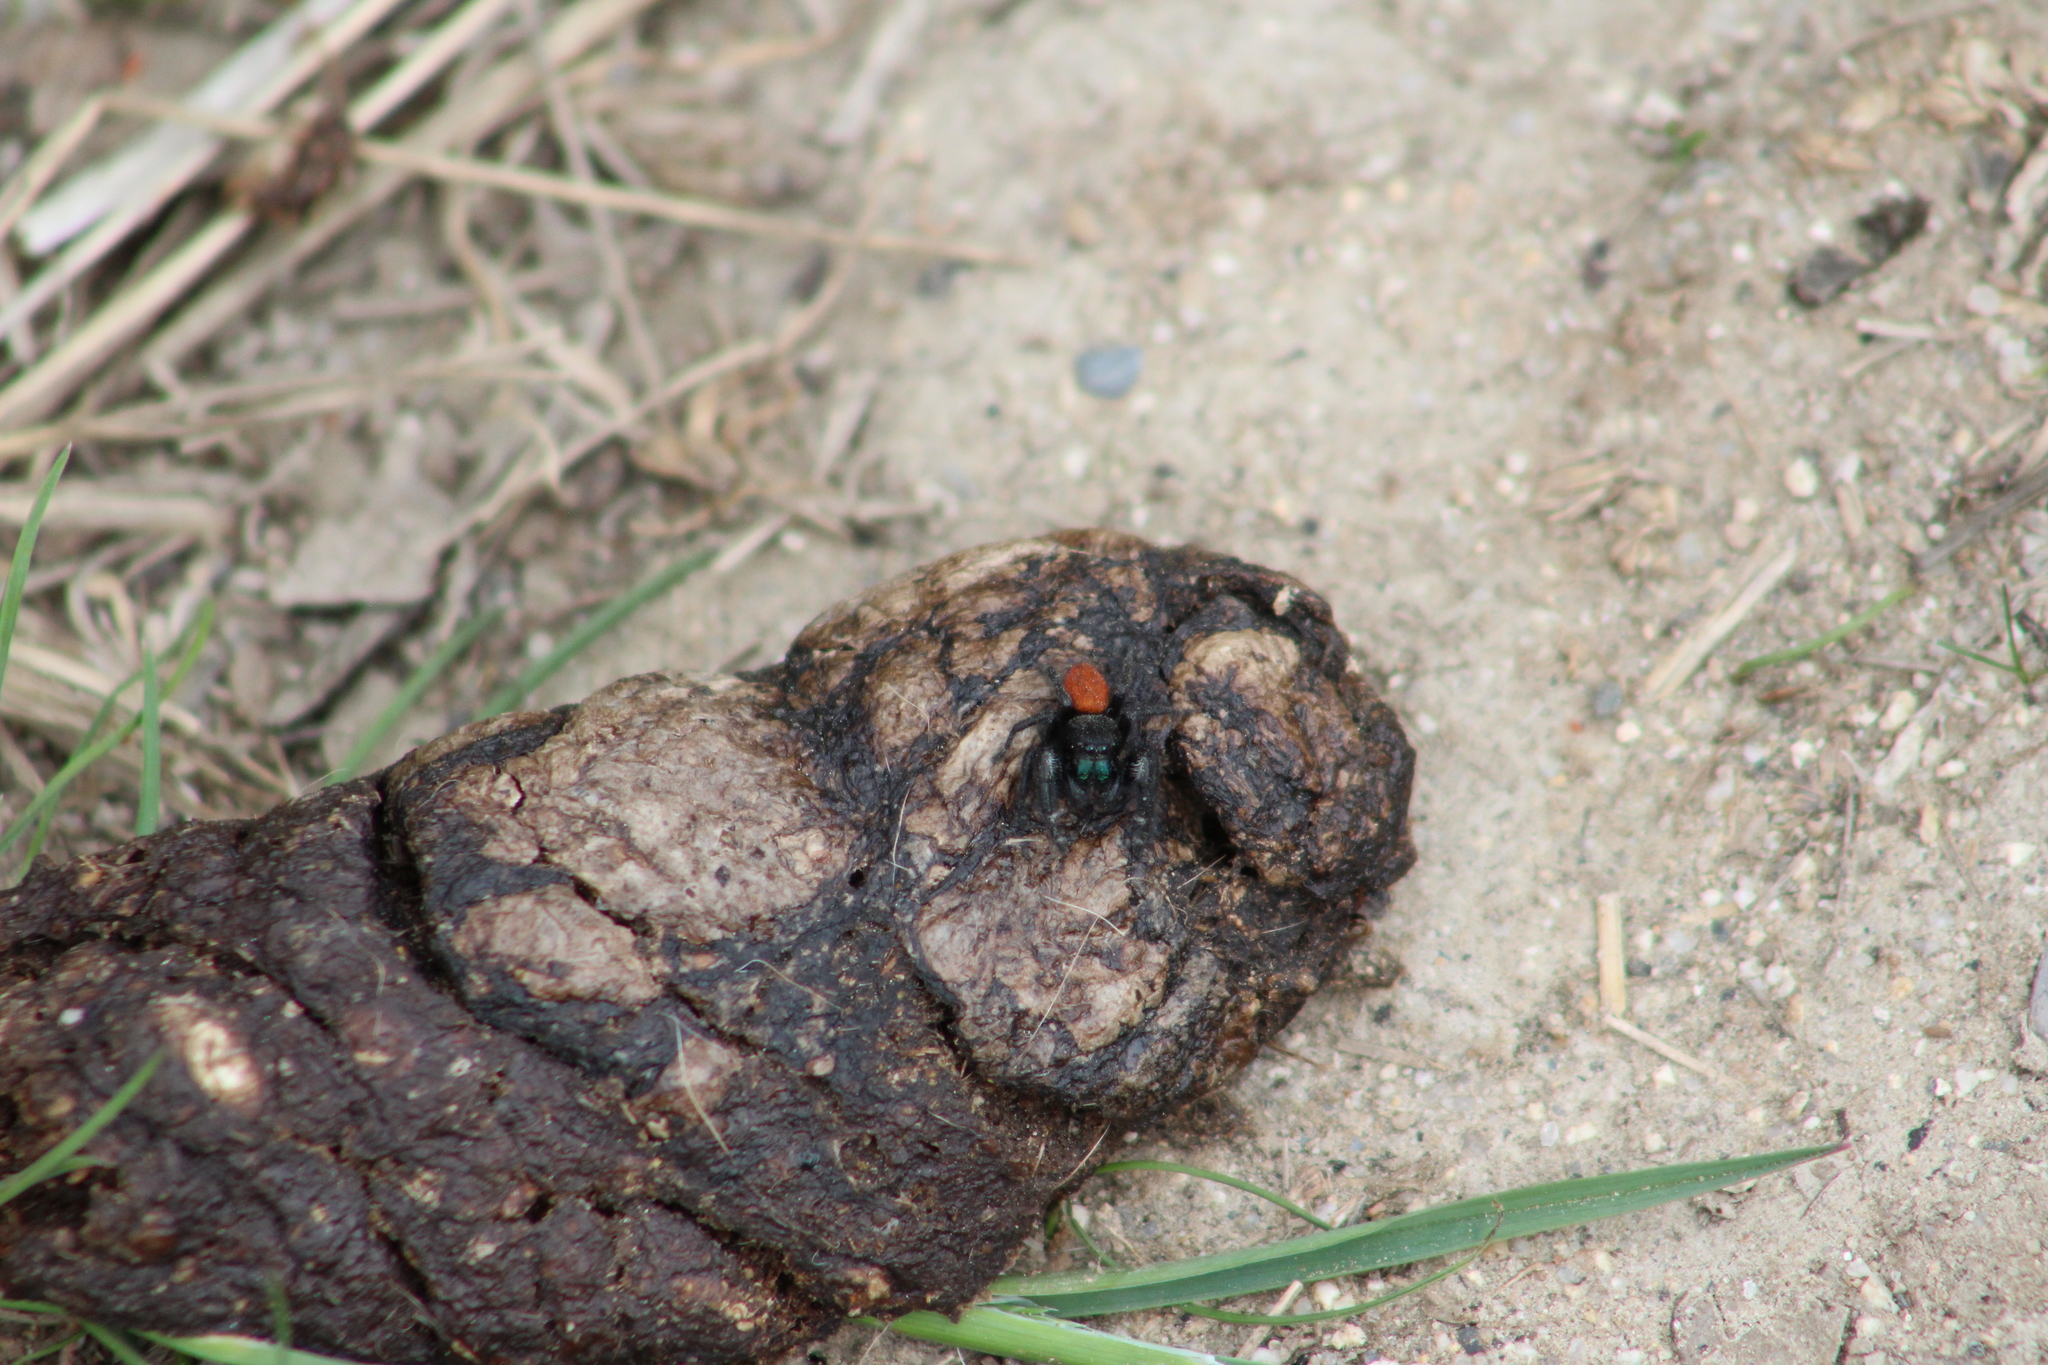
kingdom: Animalia
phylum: Arthropoda
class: Arachnida
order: Araneae
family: Salticidae
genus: Phidippus
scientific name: Phidippus johnsoni
